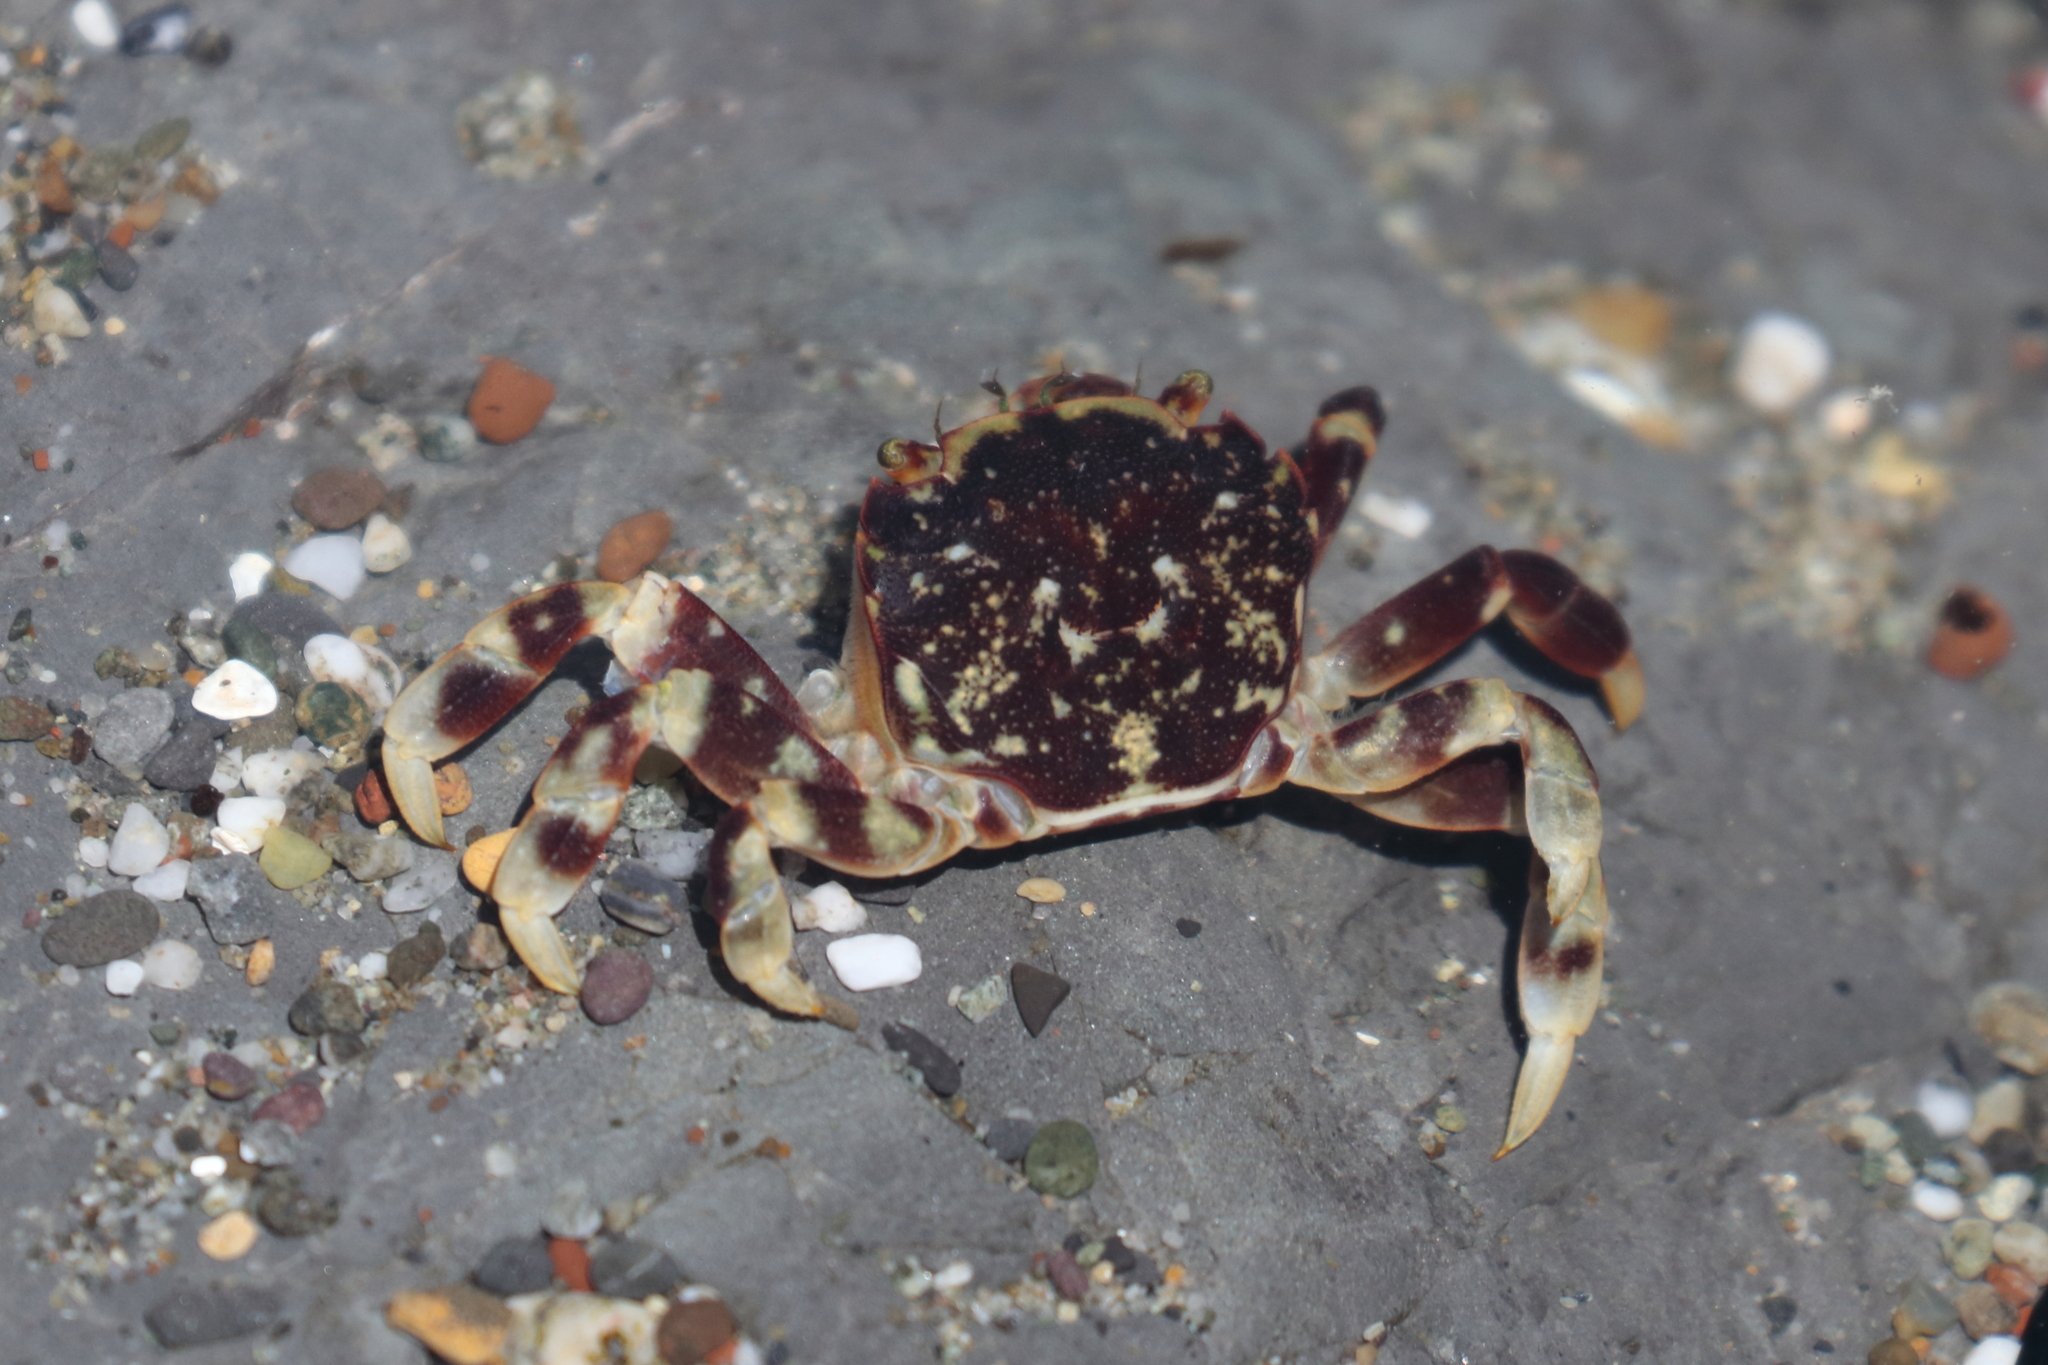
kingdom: Animalia
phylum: Arthropoda
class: Malacostraca
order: Decapoda
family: Varunidae
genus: Hemigrapsus
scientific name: Hemigrapsus nudus
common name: Purple shore crab
